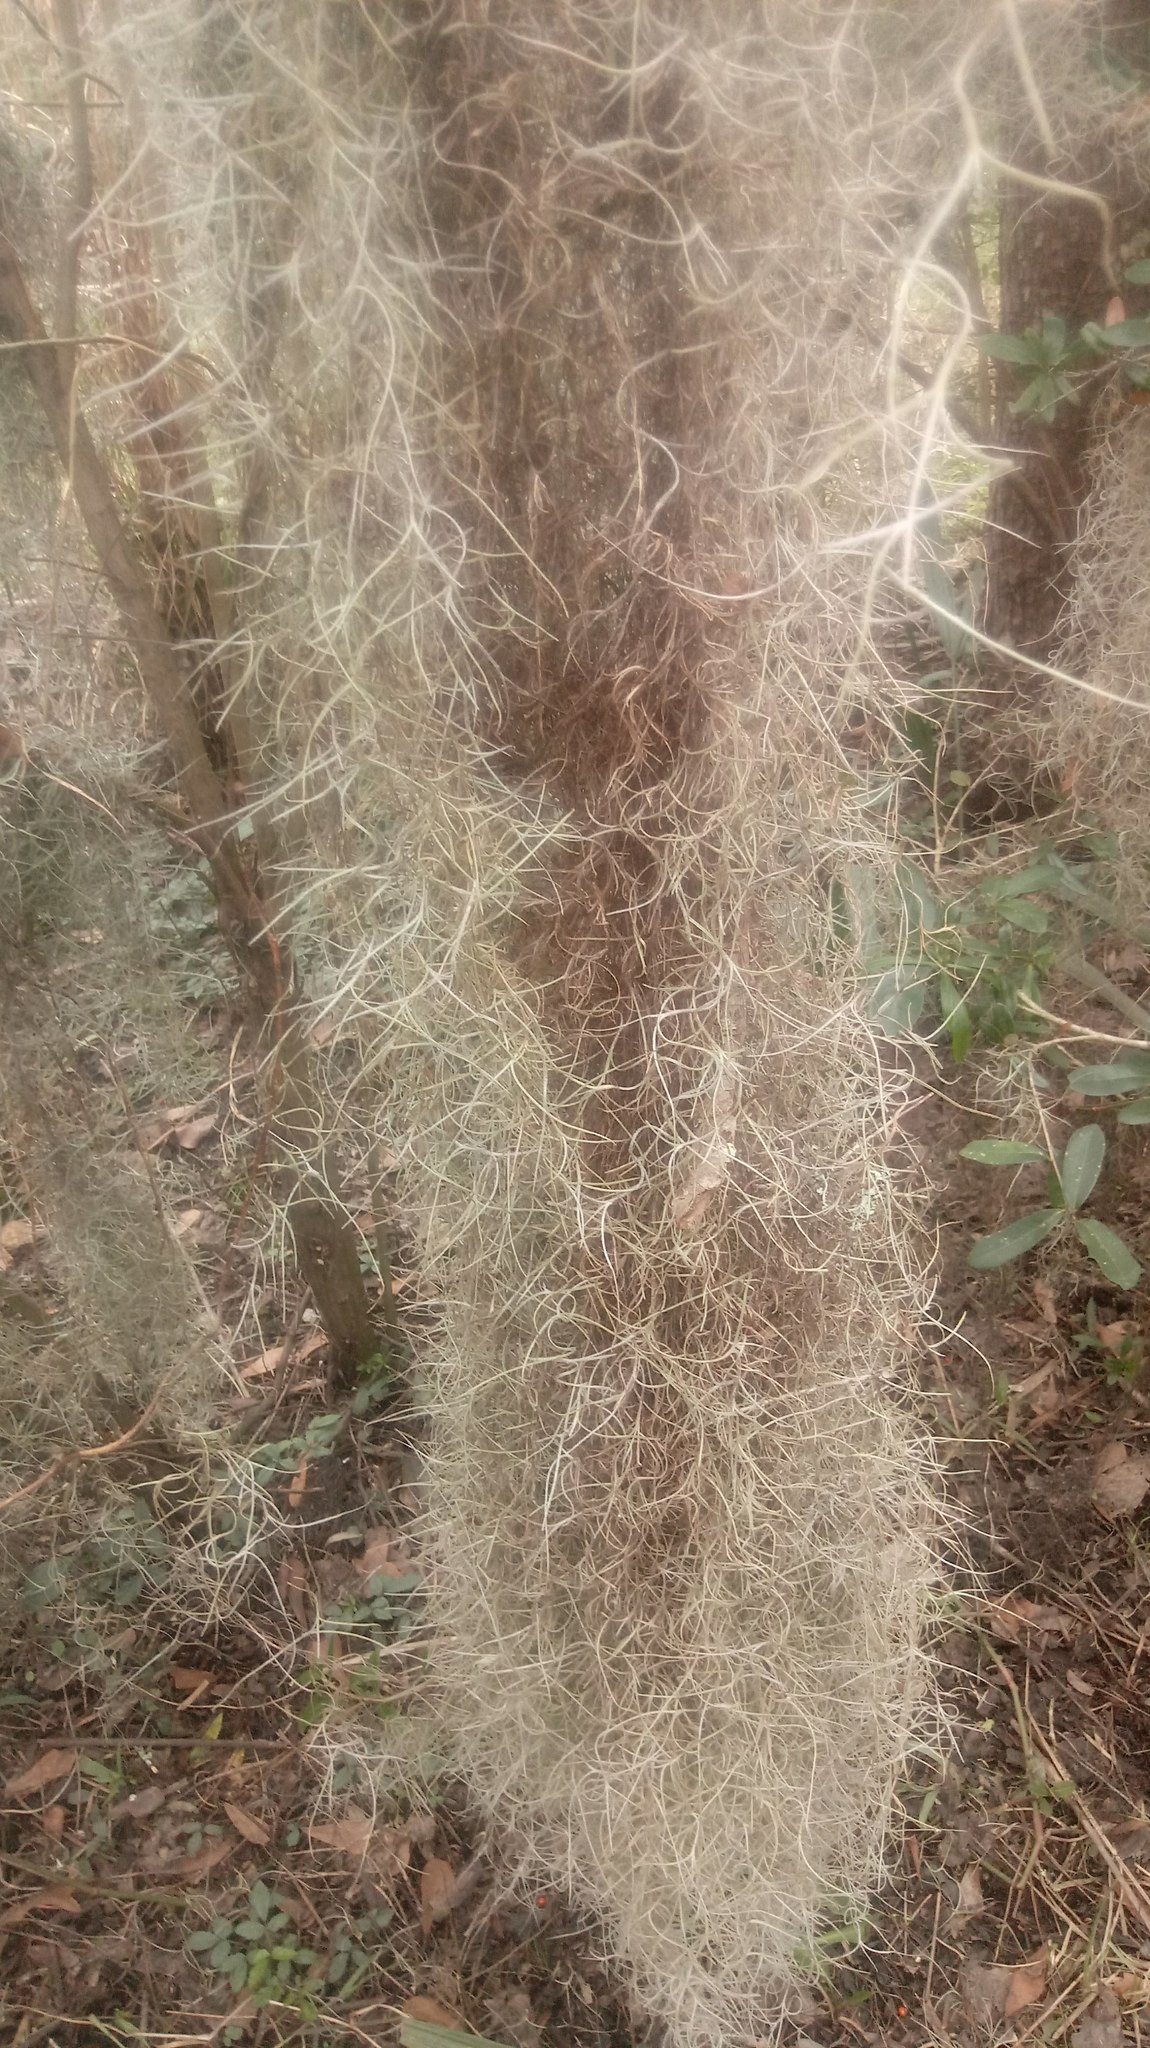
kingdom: Plantae
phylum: Tracheophyta
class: Liliopsida
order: Poales
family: Bromeliaceae
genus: Tillandsia
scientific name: Tillandsia usneoides
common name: Spanish moss
